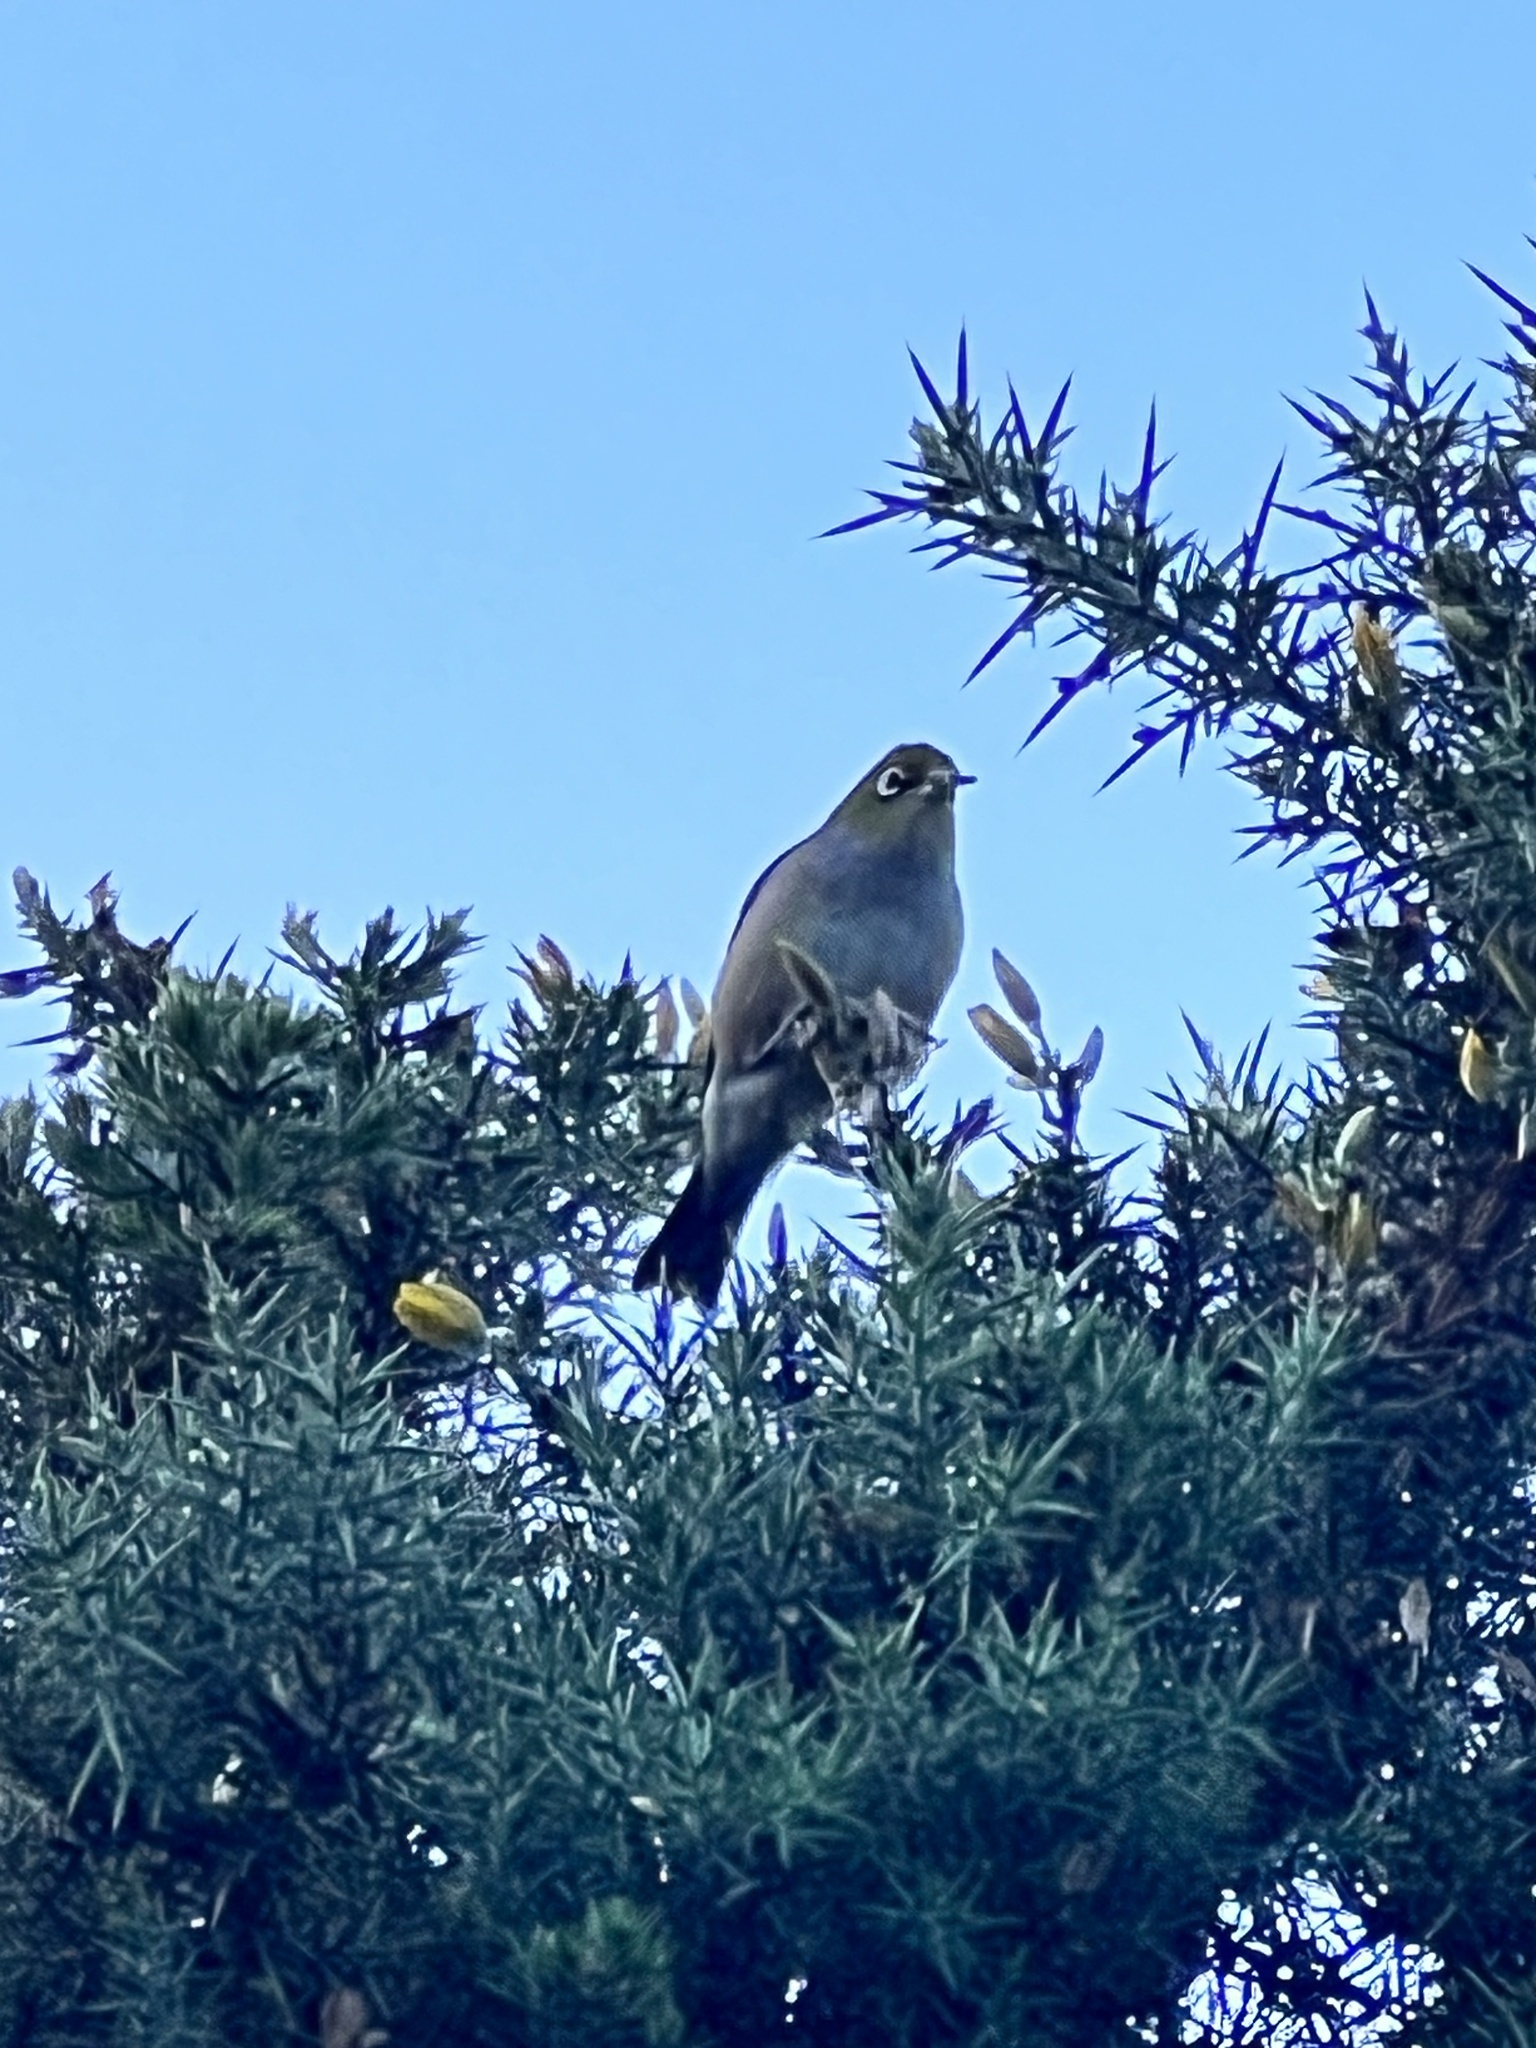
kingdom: Animalia
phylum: Chordata
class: Aves
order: Passeriformes
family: Zosteropidae
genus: Zosterops
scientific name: Zosterops lateralis
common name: Silvereye
